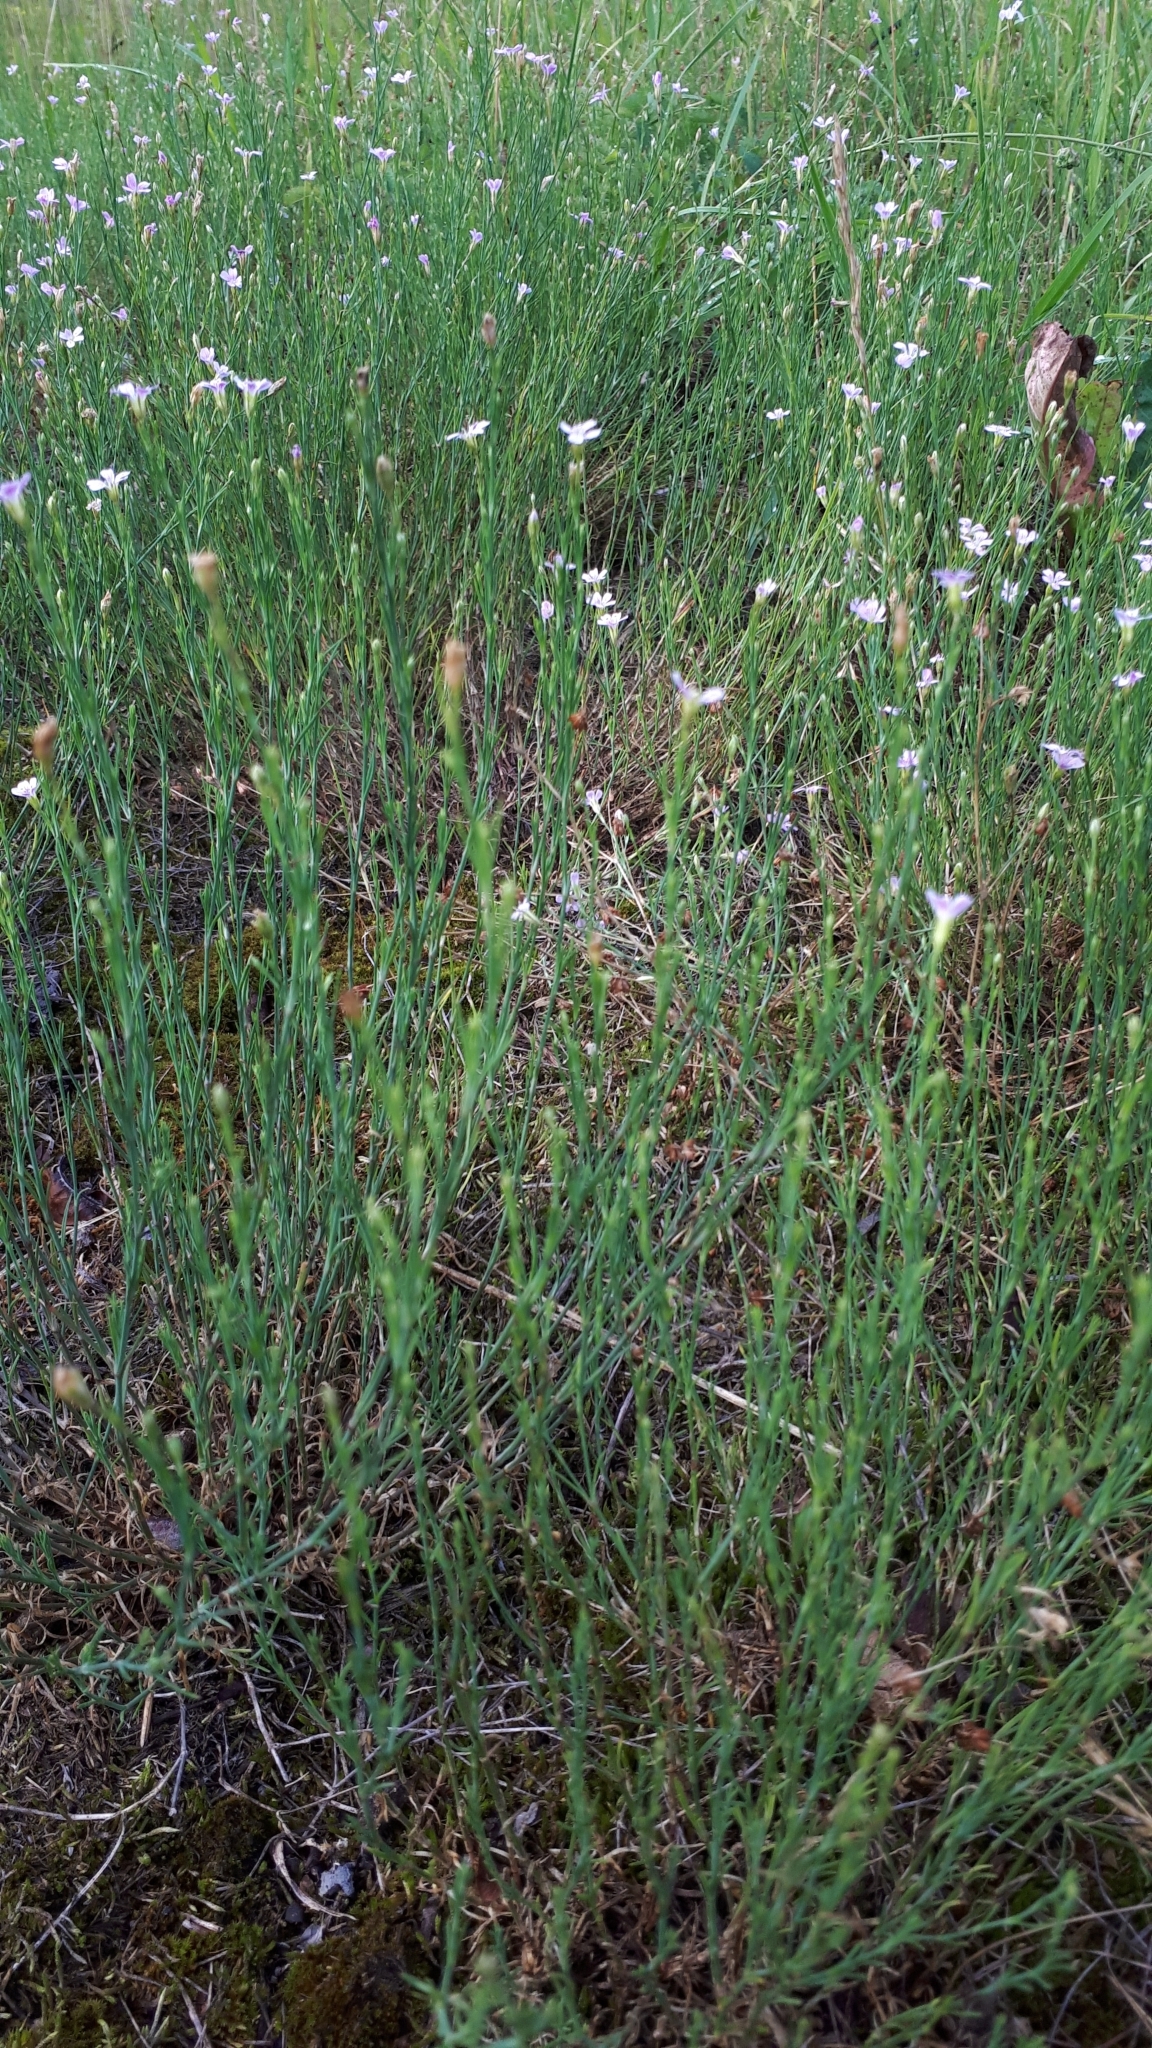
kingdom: Plantae
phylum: Tracheophyta
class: Magnoliopsida
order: Caryophyllales
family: Caryophyllaceae
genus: Petrorhagia
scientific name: Petrorhagia prolifera
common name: Proliferous pink
